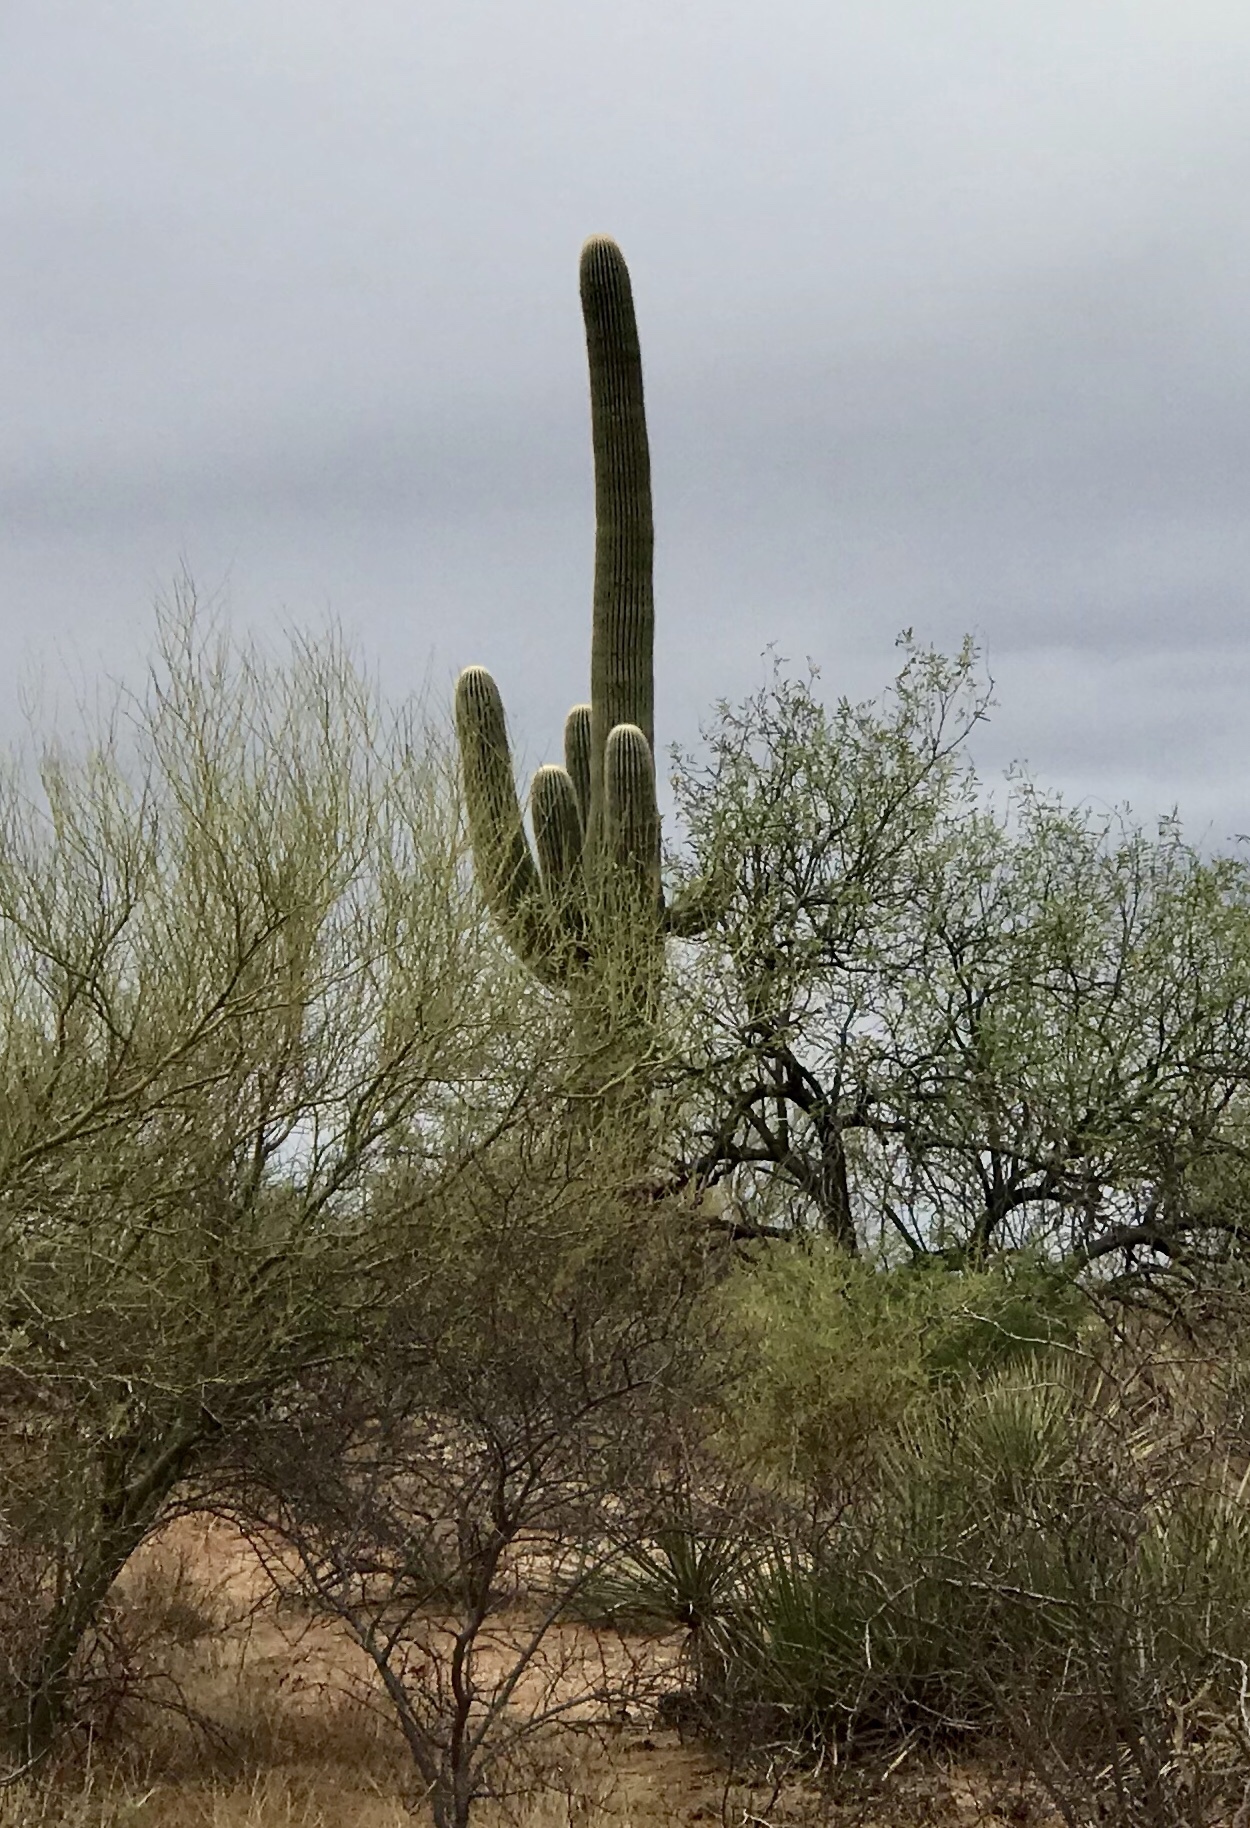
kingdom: Plantae
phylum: Tracheophyta
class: Magnoliopsida
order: Caryophyllales
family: Cactaceae
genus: Carnegiea
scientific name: Carnegiea gigantea
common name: Saguaro
